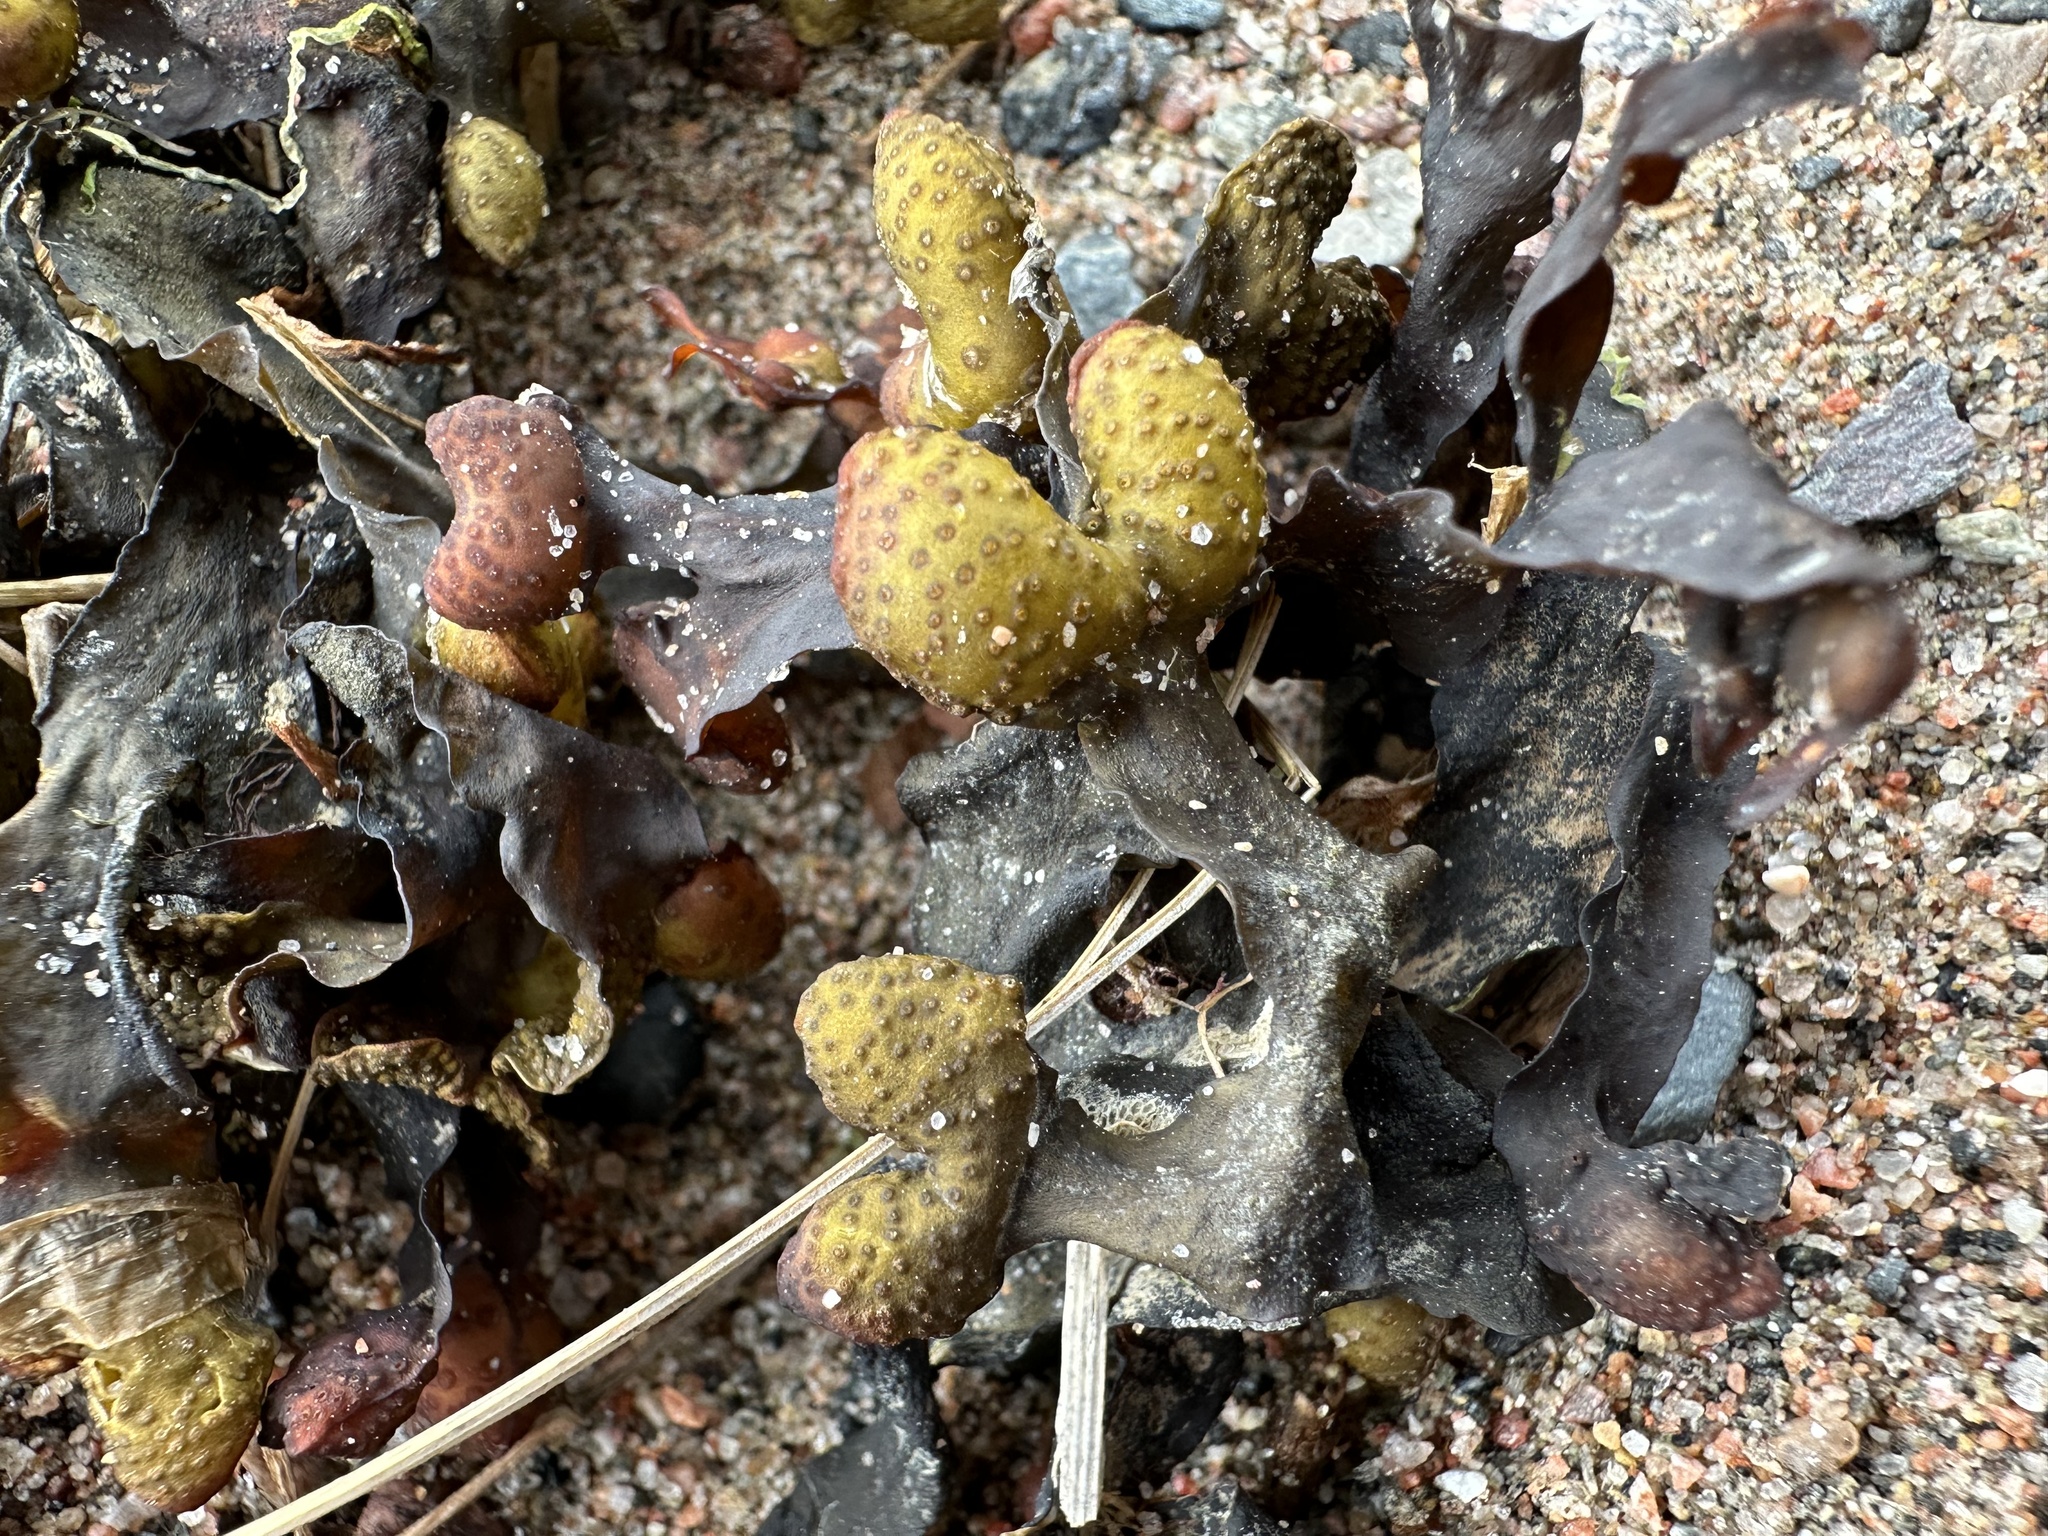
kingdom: Chromista
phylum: Ochrophyta
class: Phaeophyceae
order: Fucales
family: Fucaceae
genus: Fucus
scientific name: Fucus vesiculosus
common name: Bladder wrack
